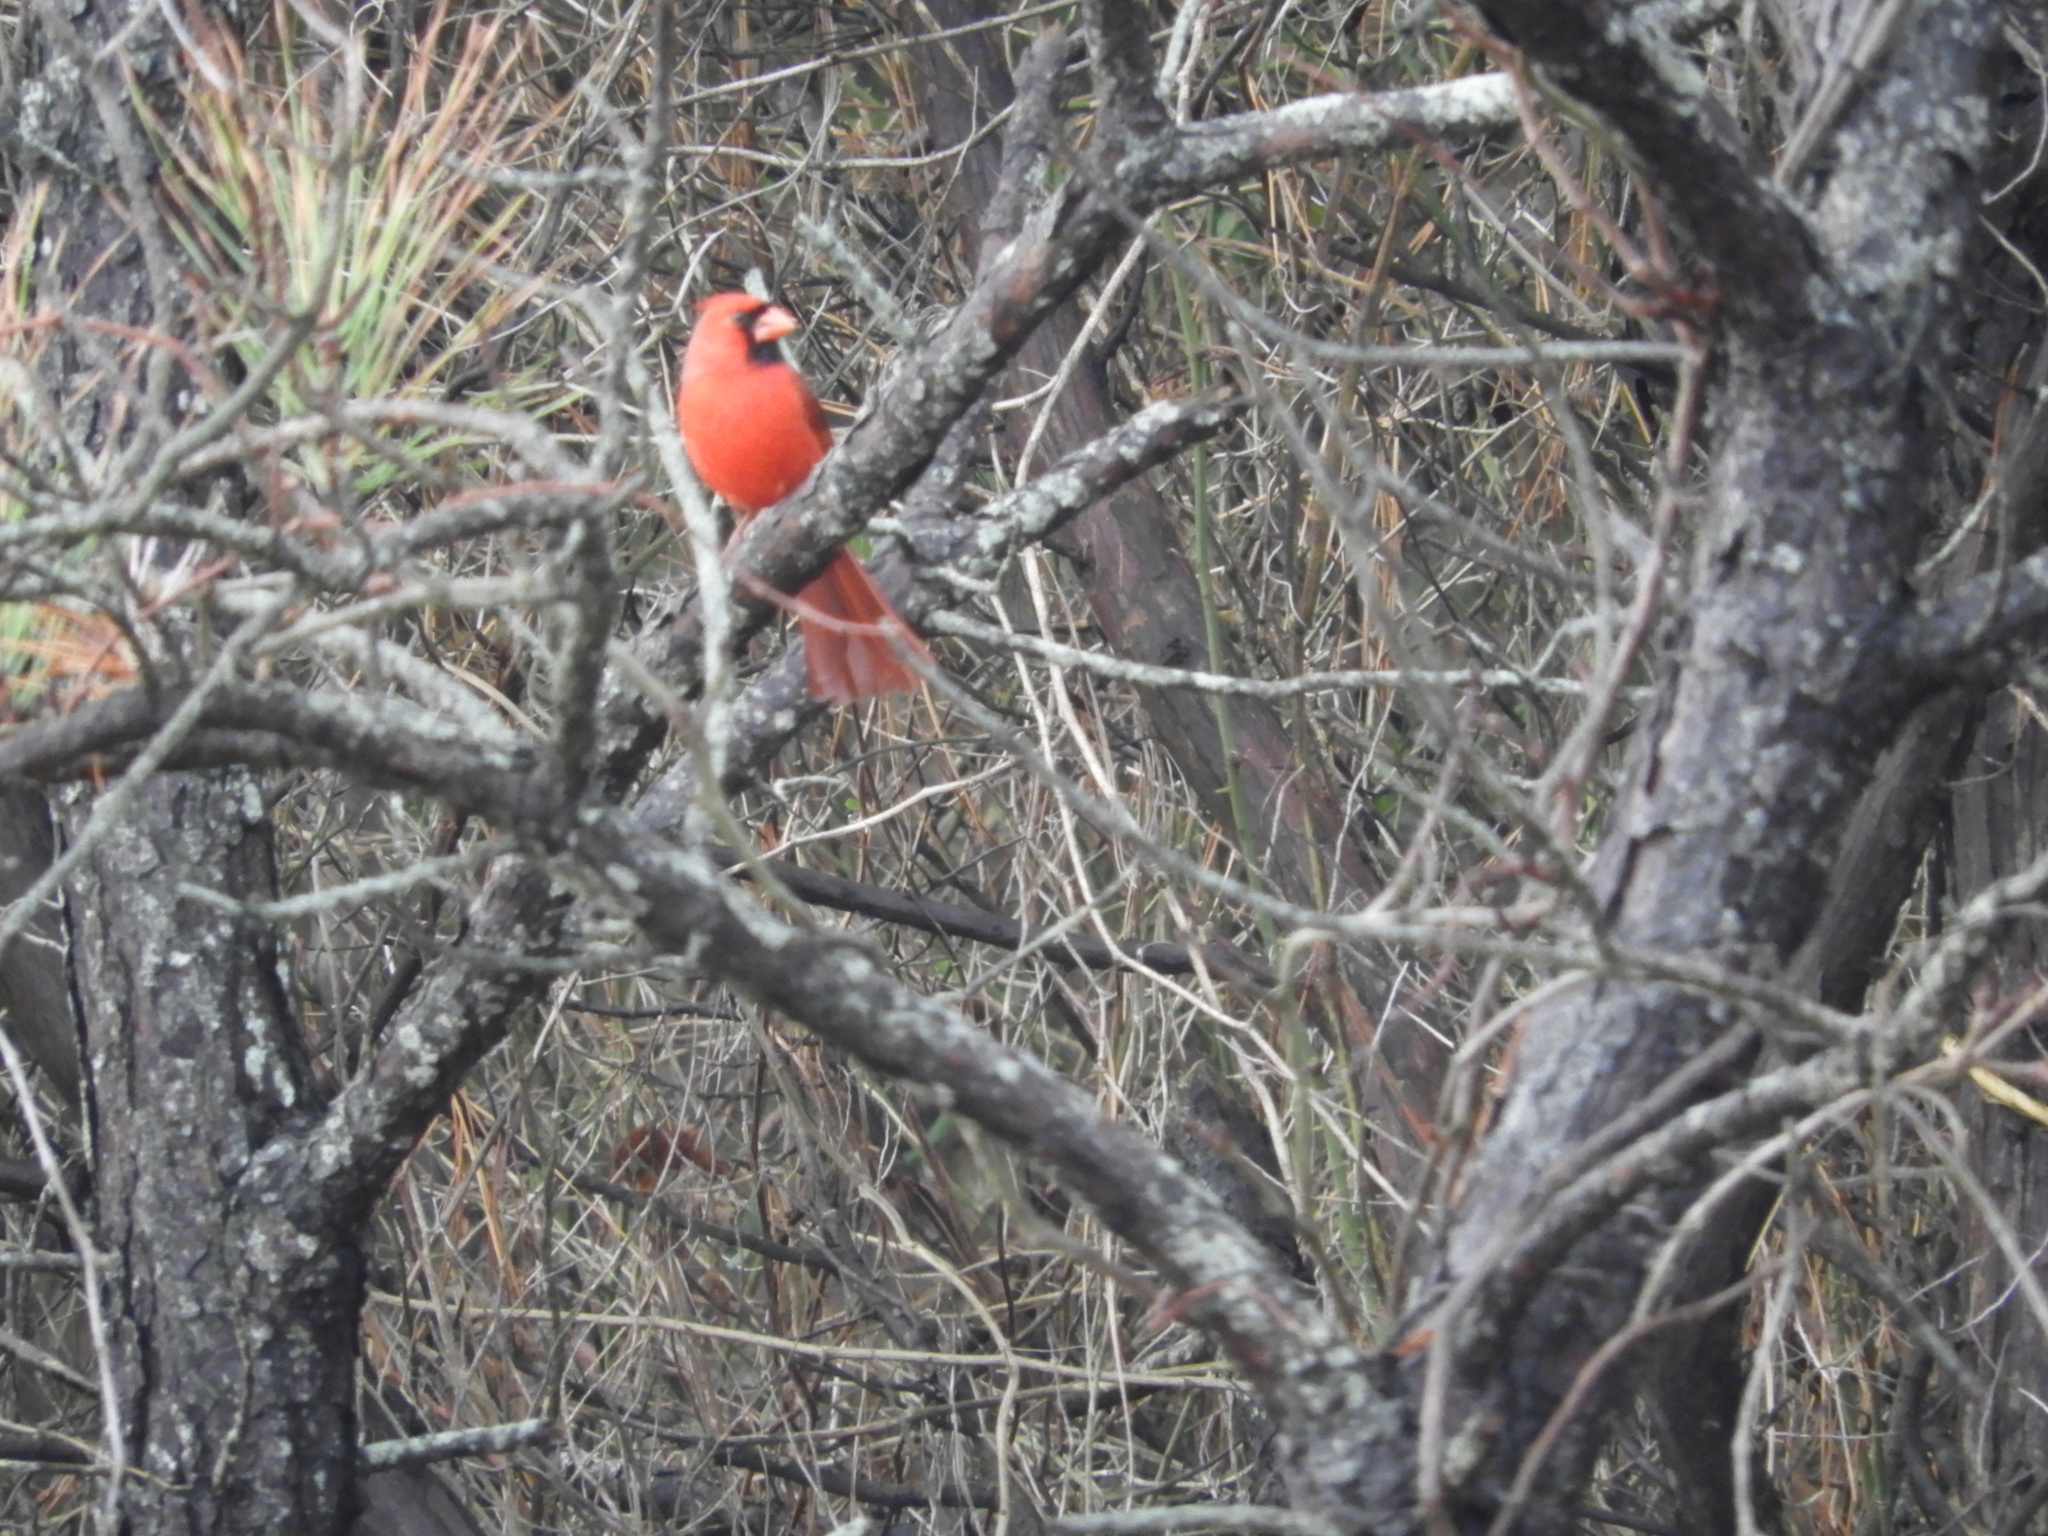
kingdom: Animalia
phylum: Chordata
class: Aves
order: Passeriformes
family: Cardinalidae
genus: Cardinalis
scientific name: Cardinalis cardinalis
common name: Northern cardinal
